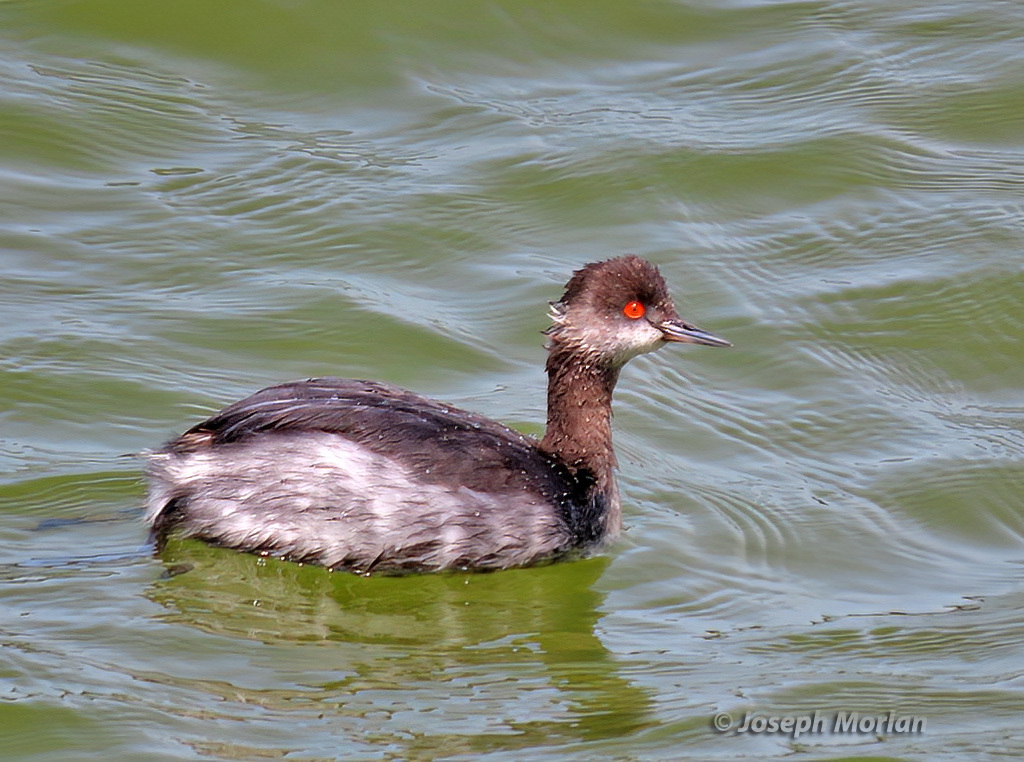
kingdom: Animalia
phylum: Chordata
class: Aves
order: Podicipediformes
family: Podicipedidae
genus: Podiceps
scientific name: Podiceps nigricollis
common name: Black-necked grebe
